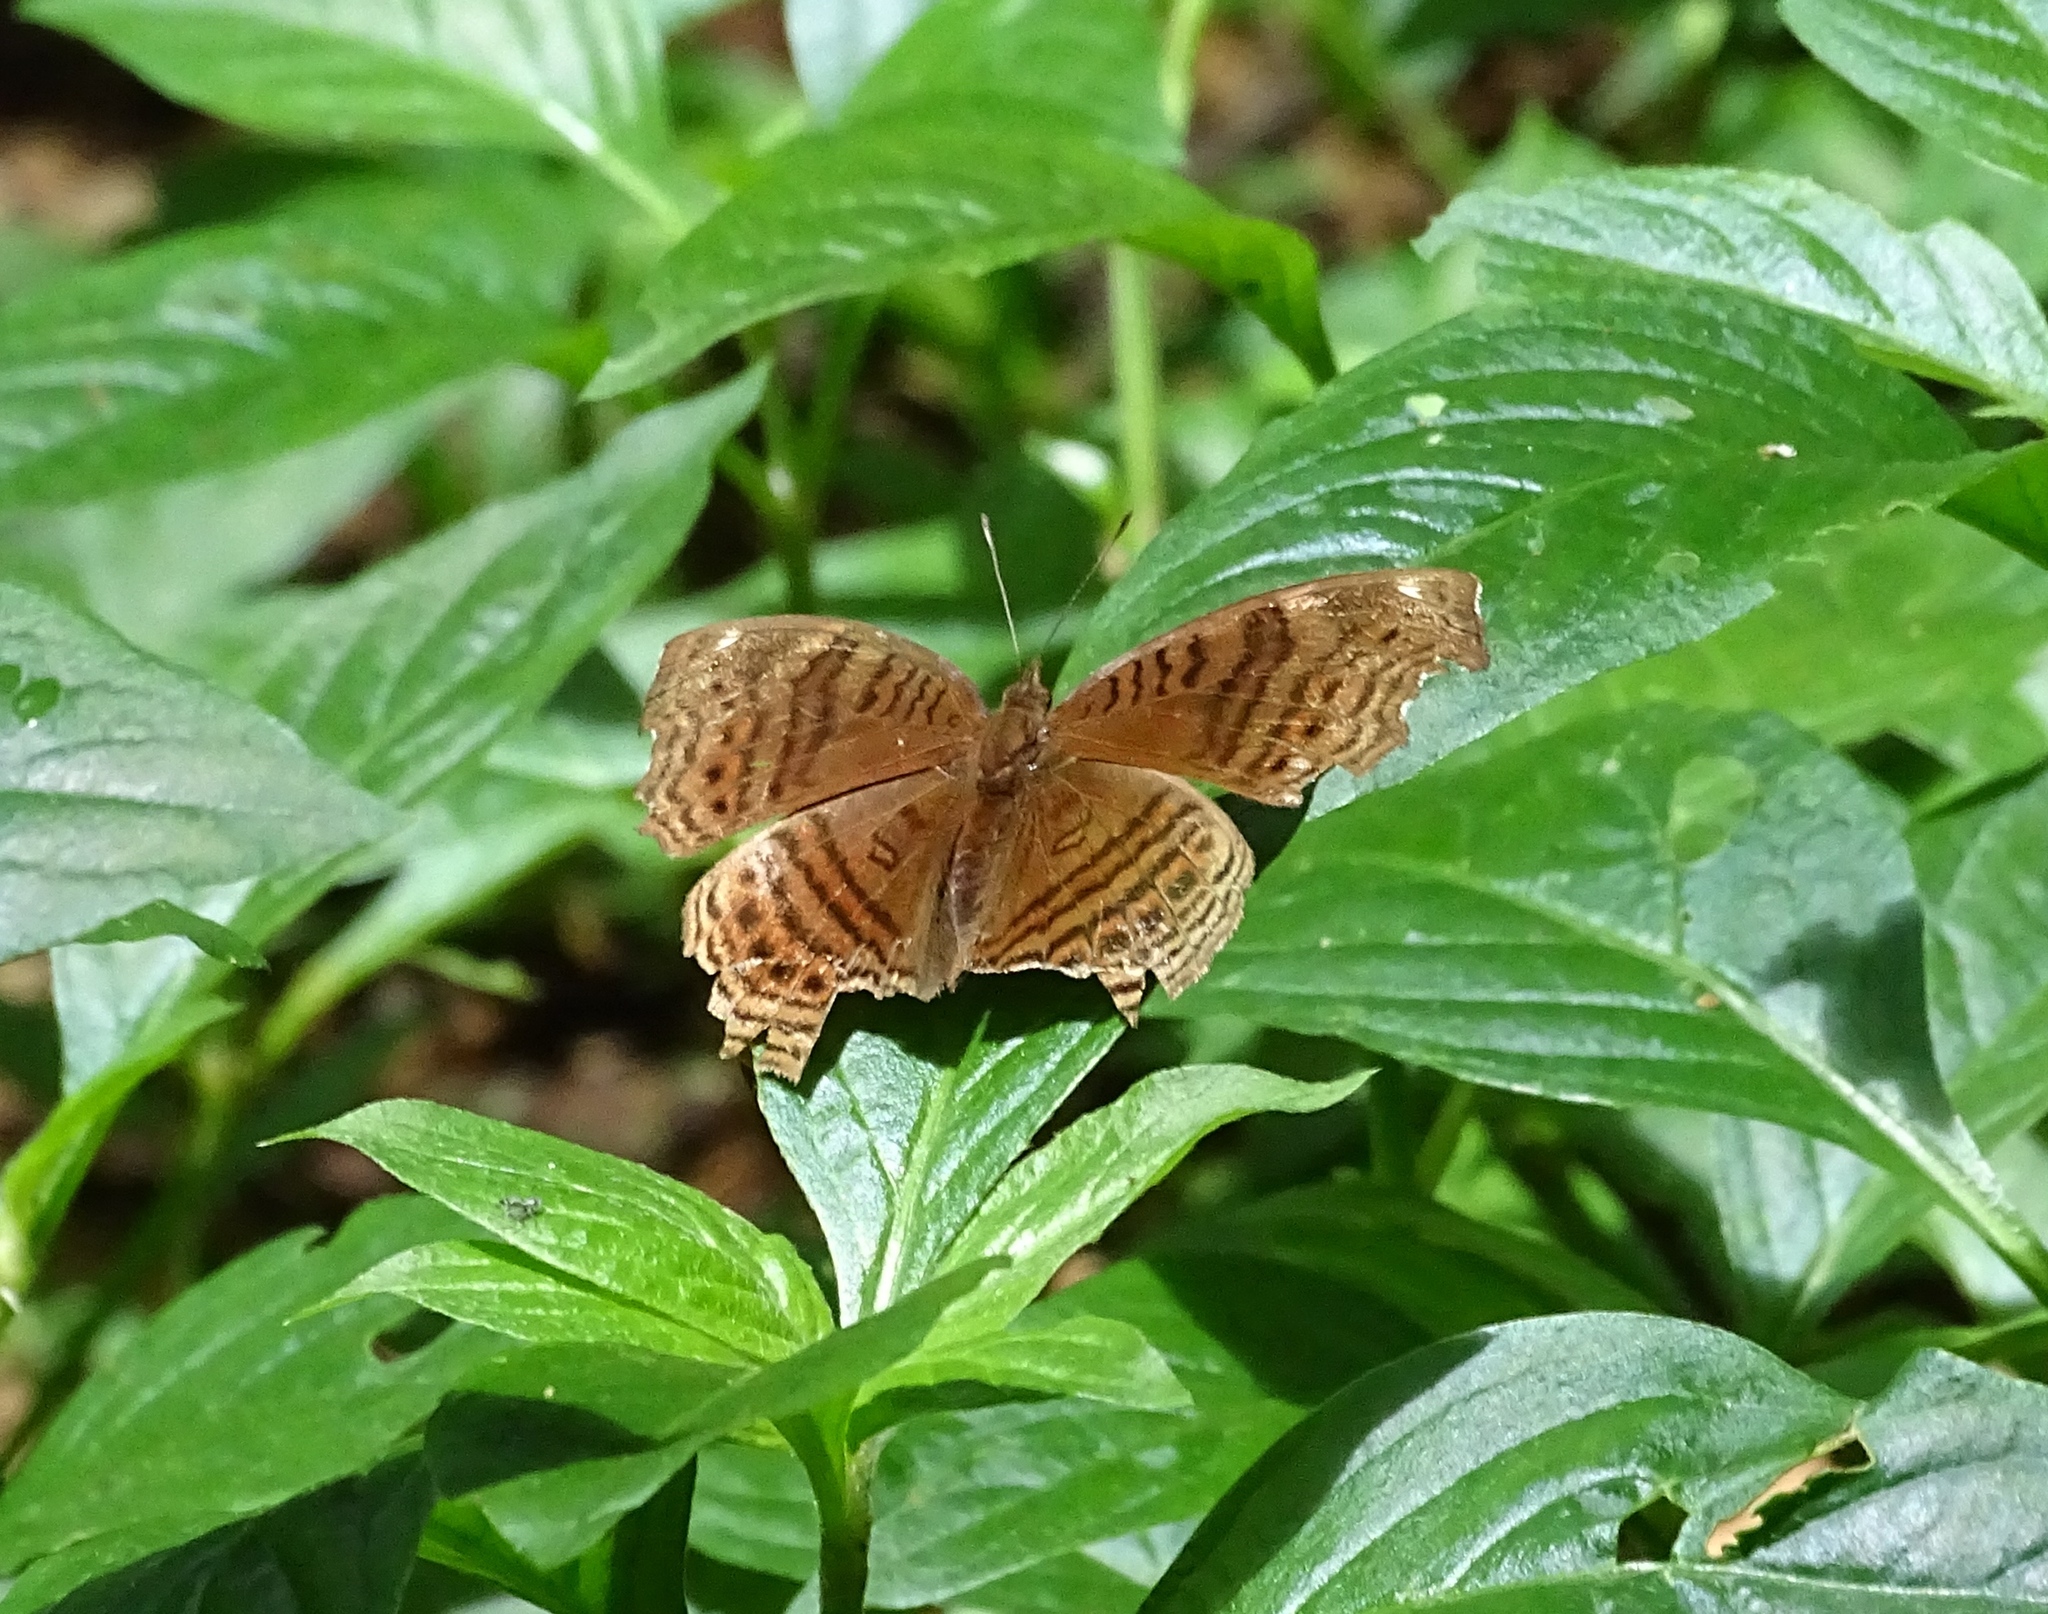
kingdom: Animalia
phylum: Arthropoda
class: Insecta
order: Lepidoptera
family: Nymphalidae
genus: Junonia
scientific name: Junonia stygia
